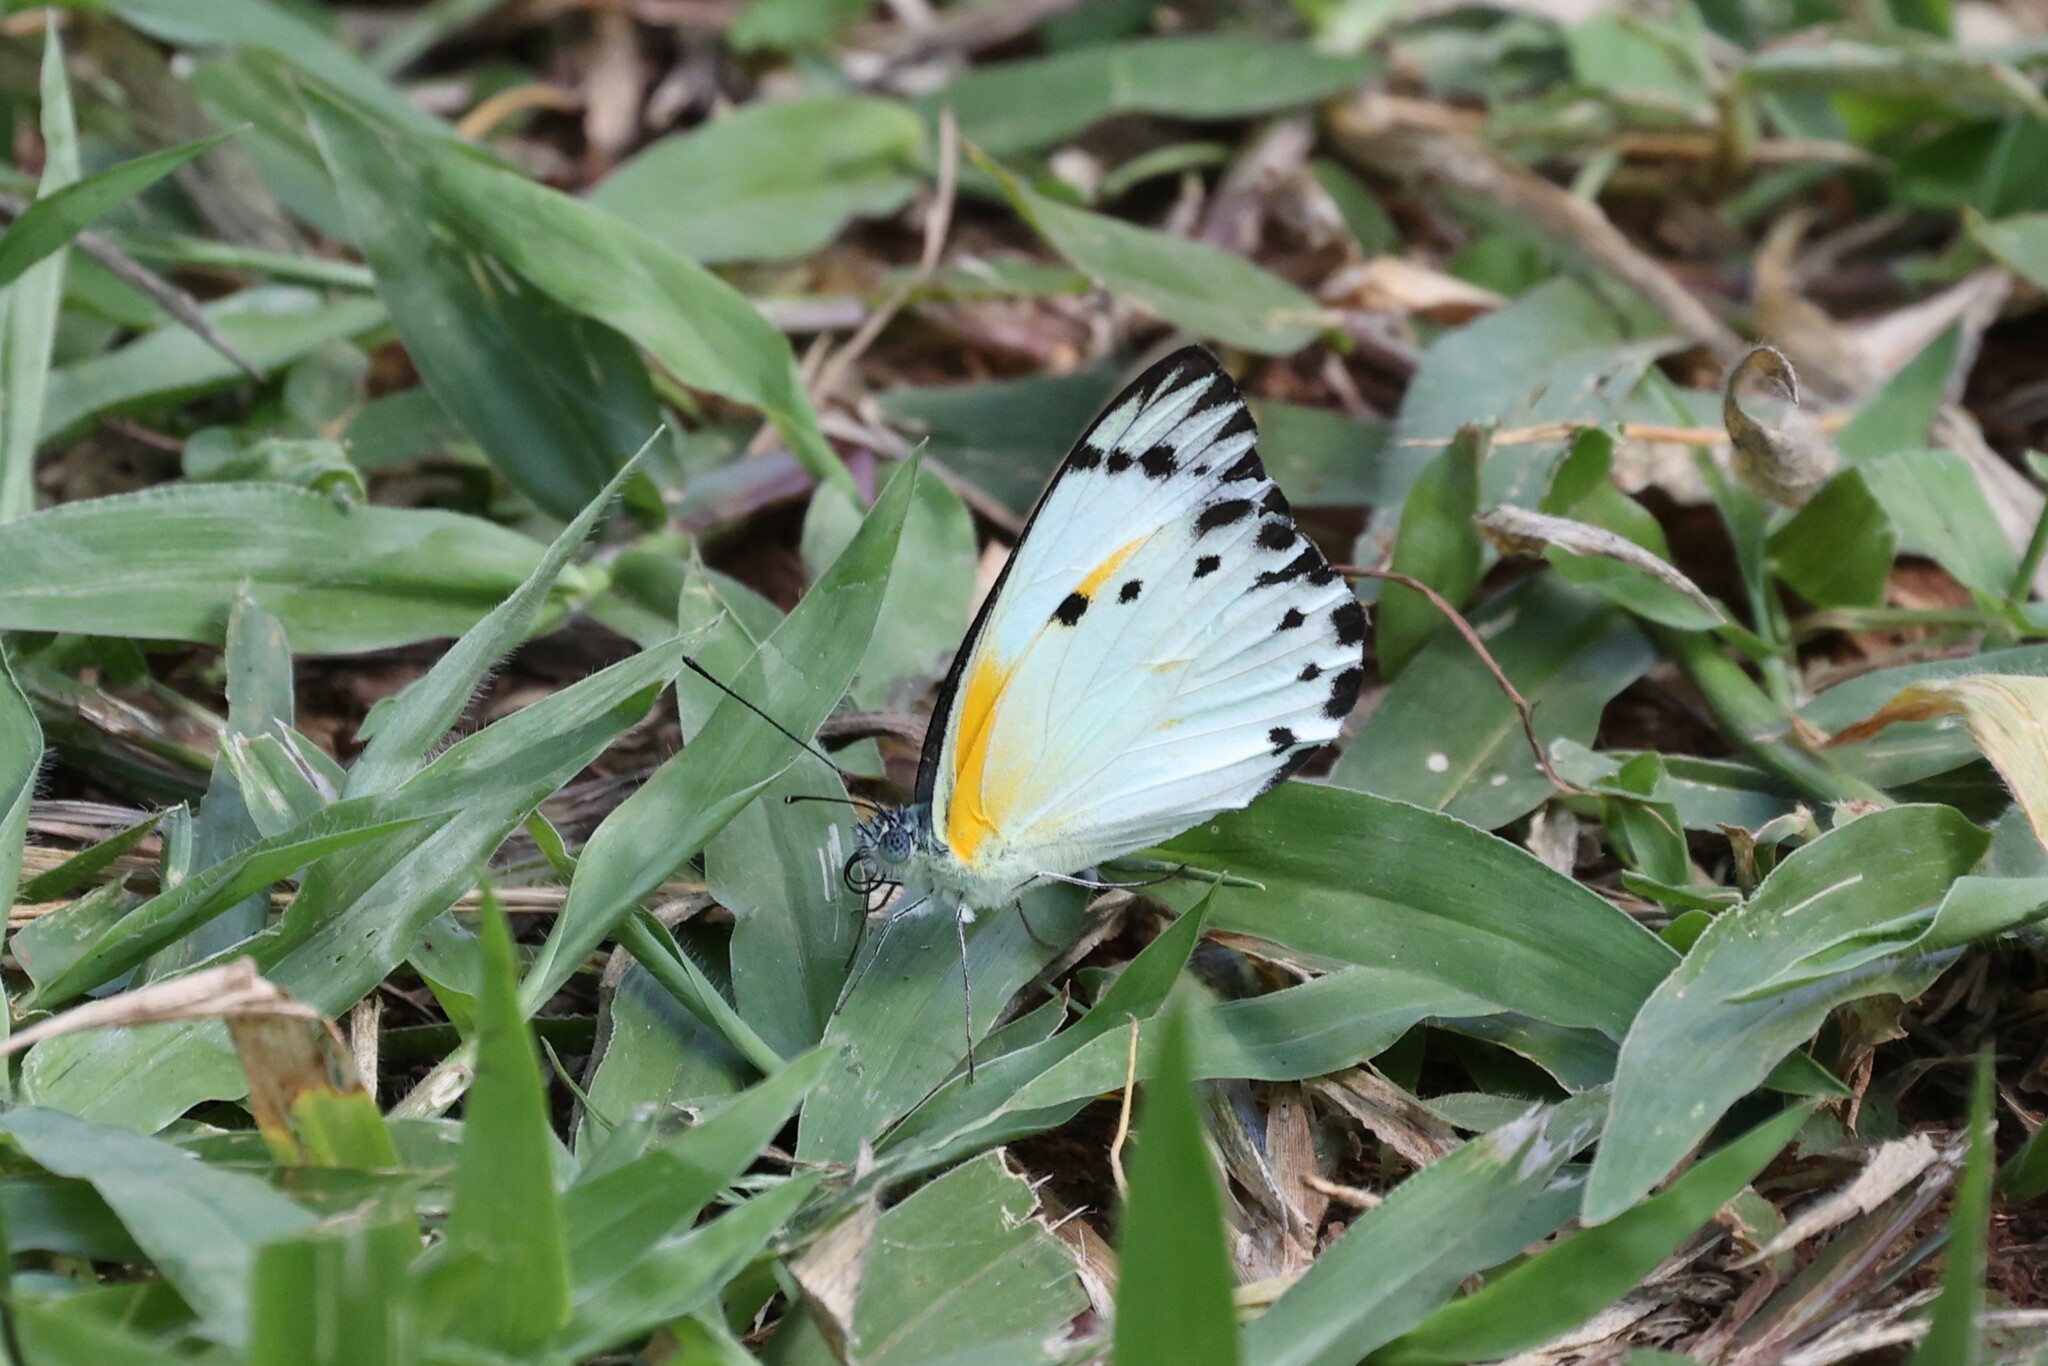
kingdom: Animalia
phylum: Arthropoda
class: Insecta
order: Lepidoptera
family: Pieridae
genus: Belenois
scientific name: Belenois theora
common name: Forest caper white
